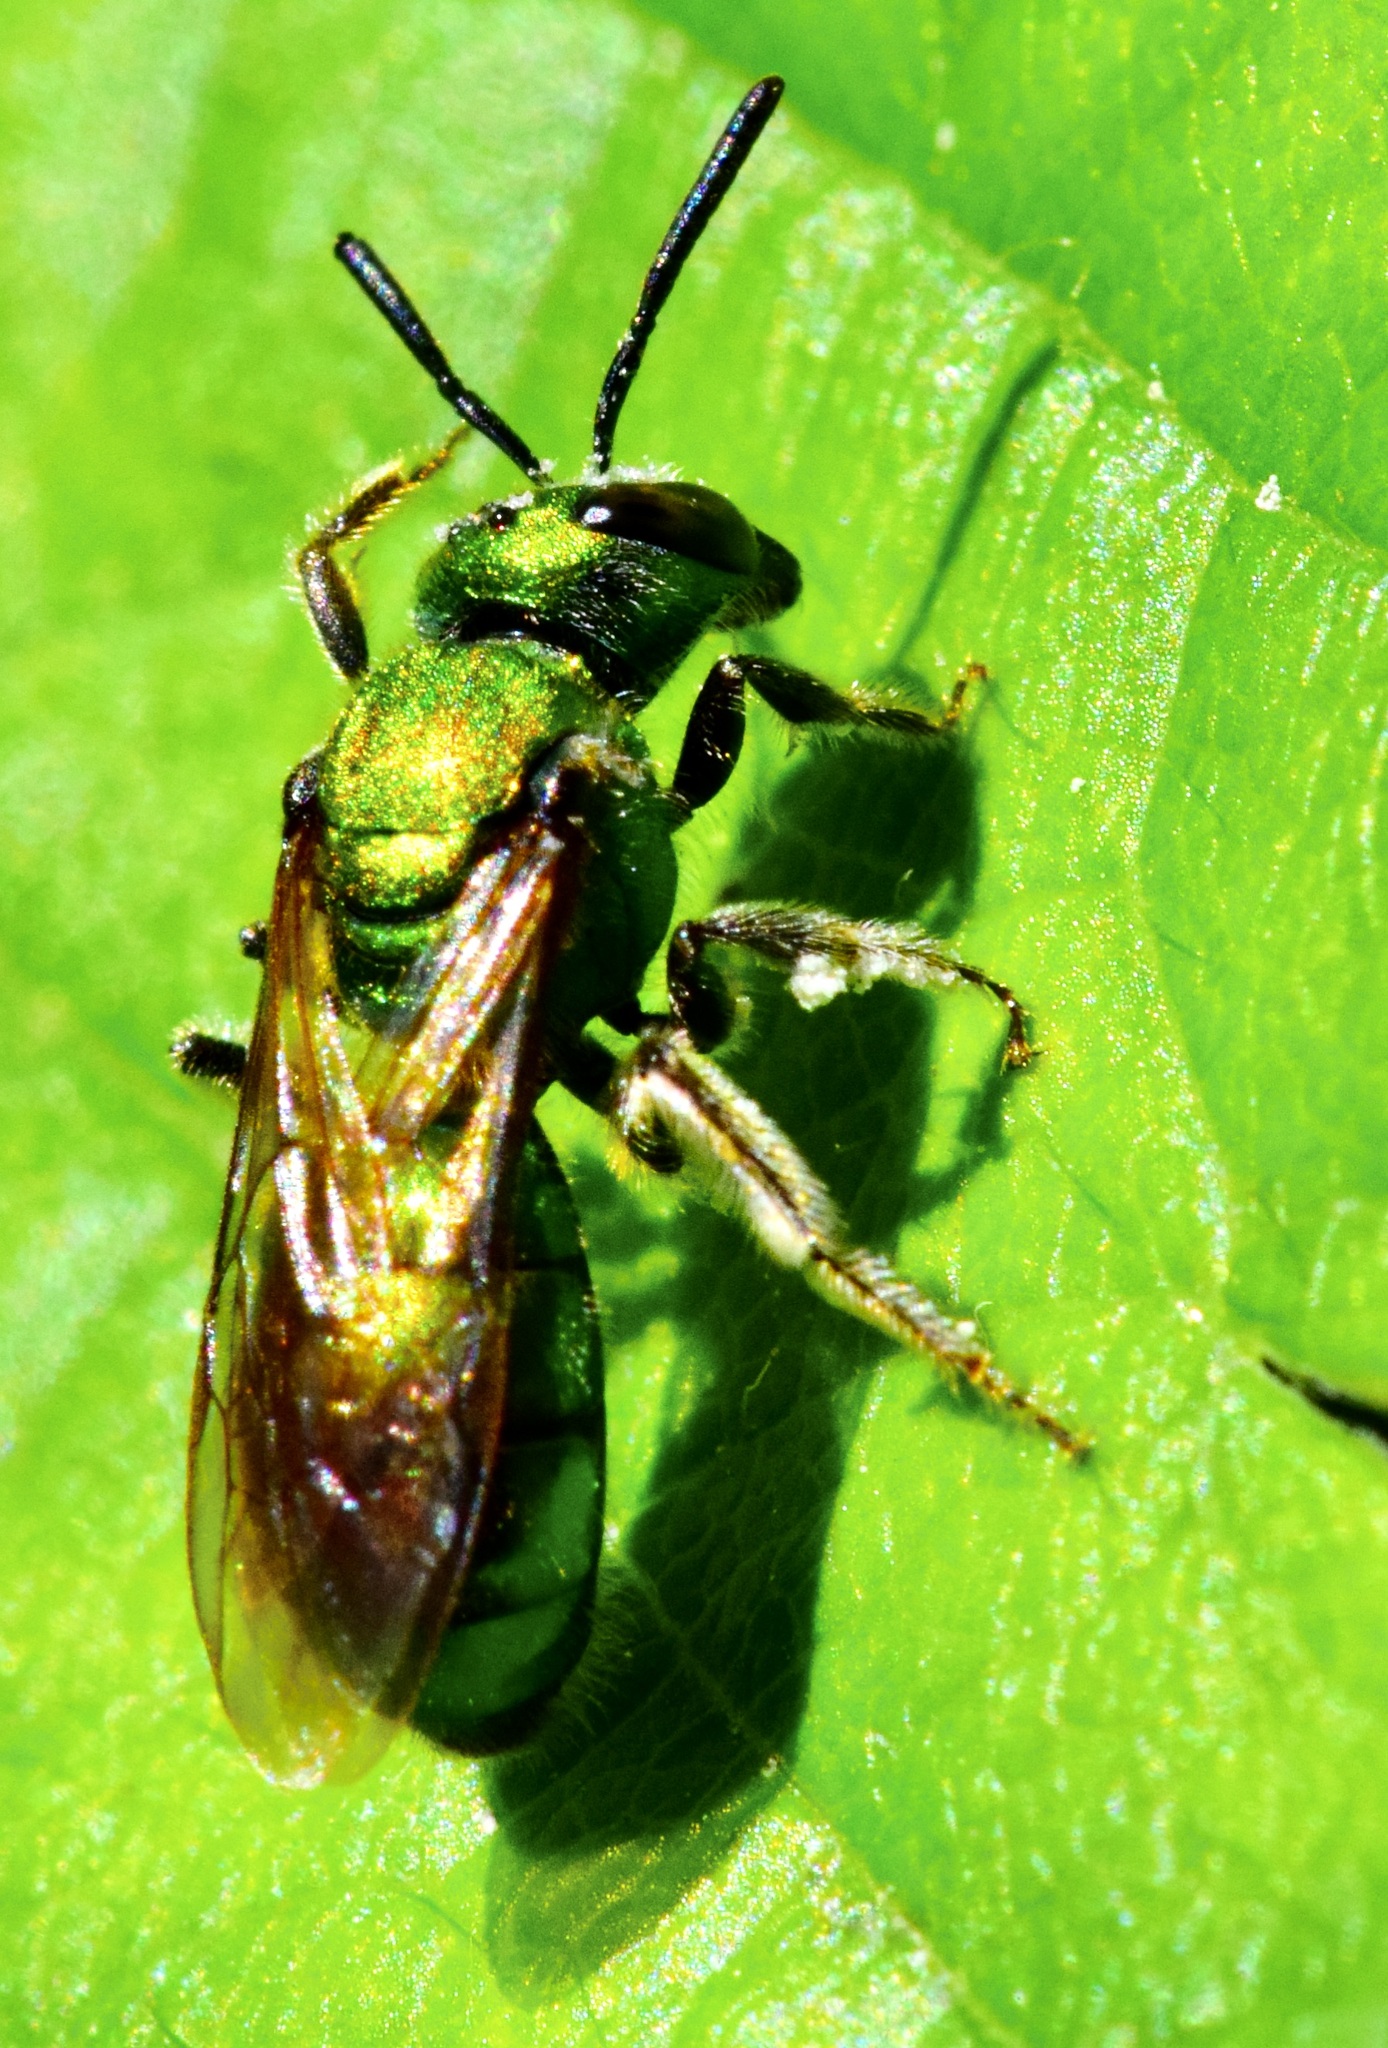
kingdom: Animalia
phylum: Arthropoda
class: Insecta
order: Hymenoptera
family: Halictidae
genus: Augochlora
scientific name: Augochlora pura
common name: Pure green sweat bee
